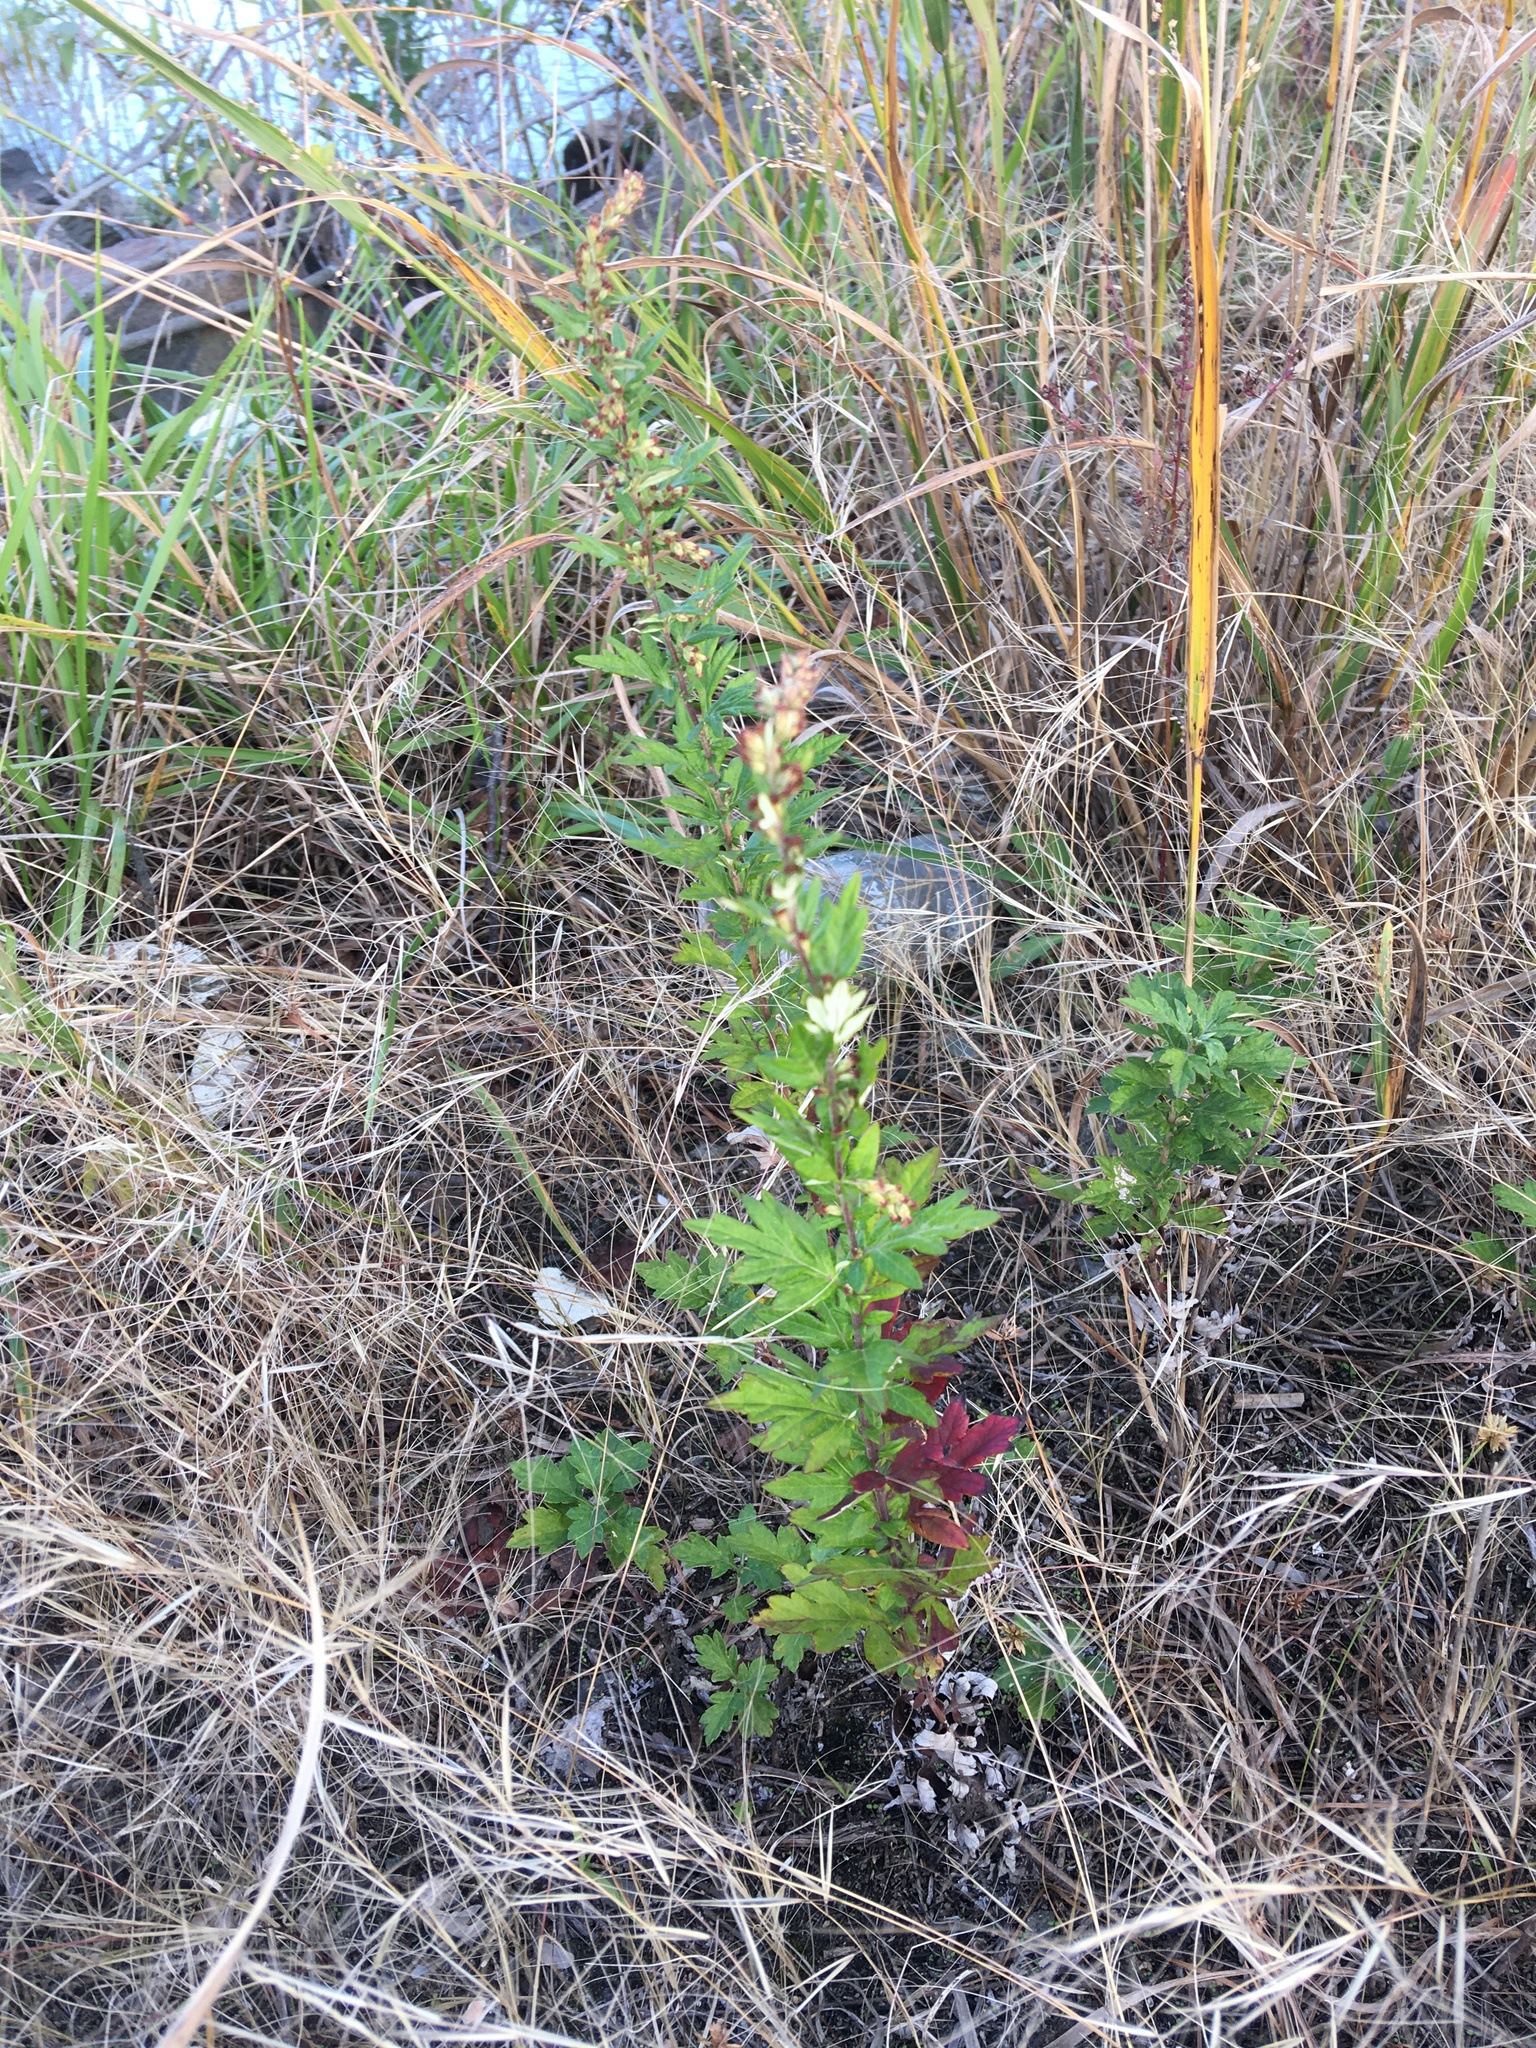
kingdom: Plantae
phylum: Tracheophyta
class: Magnoliopsida
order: Asterales
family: Asteraceae
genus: Artemisia
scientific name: Artemisia vulgaris
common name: Mugwort
